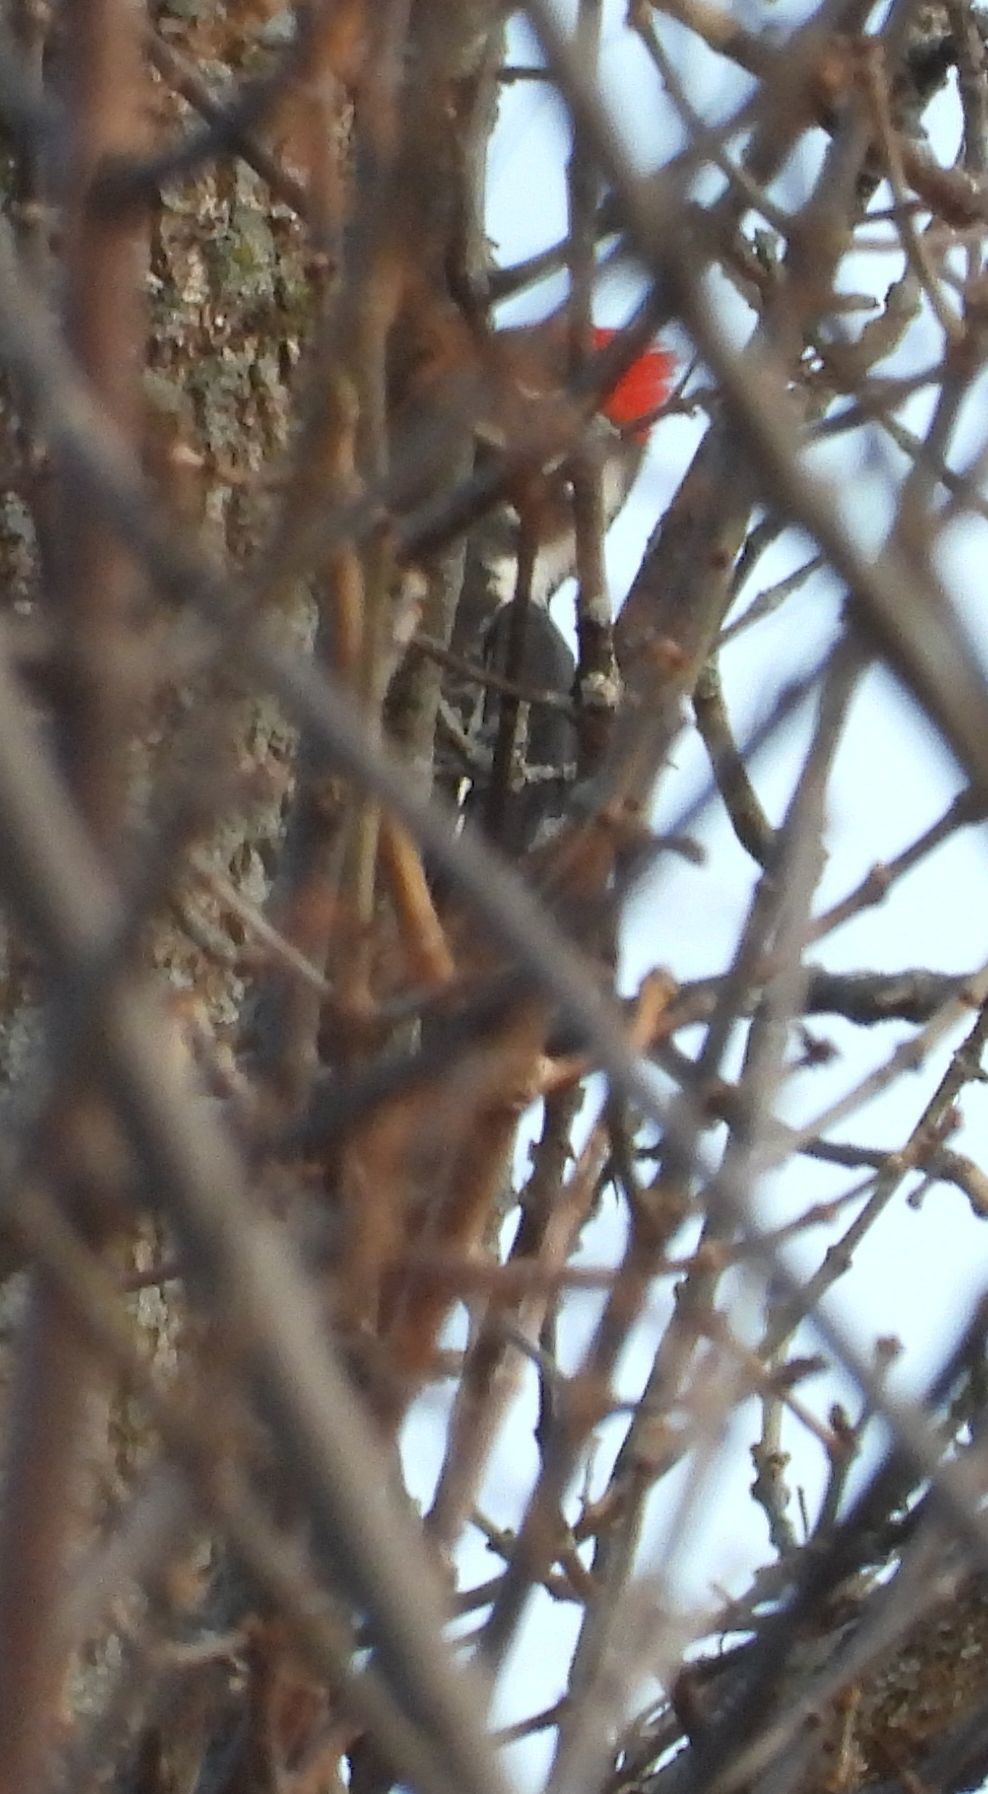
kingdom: Animalia
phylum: Chordata
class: Aves
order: Piciformes
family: Picidae
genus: Dryocopus
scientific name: Dryocopus pileatus
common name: Pileated woodpecker
